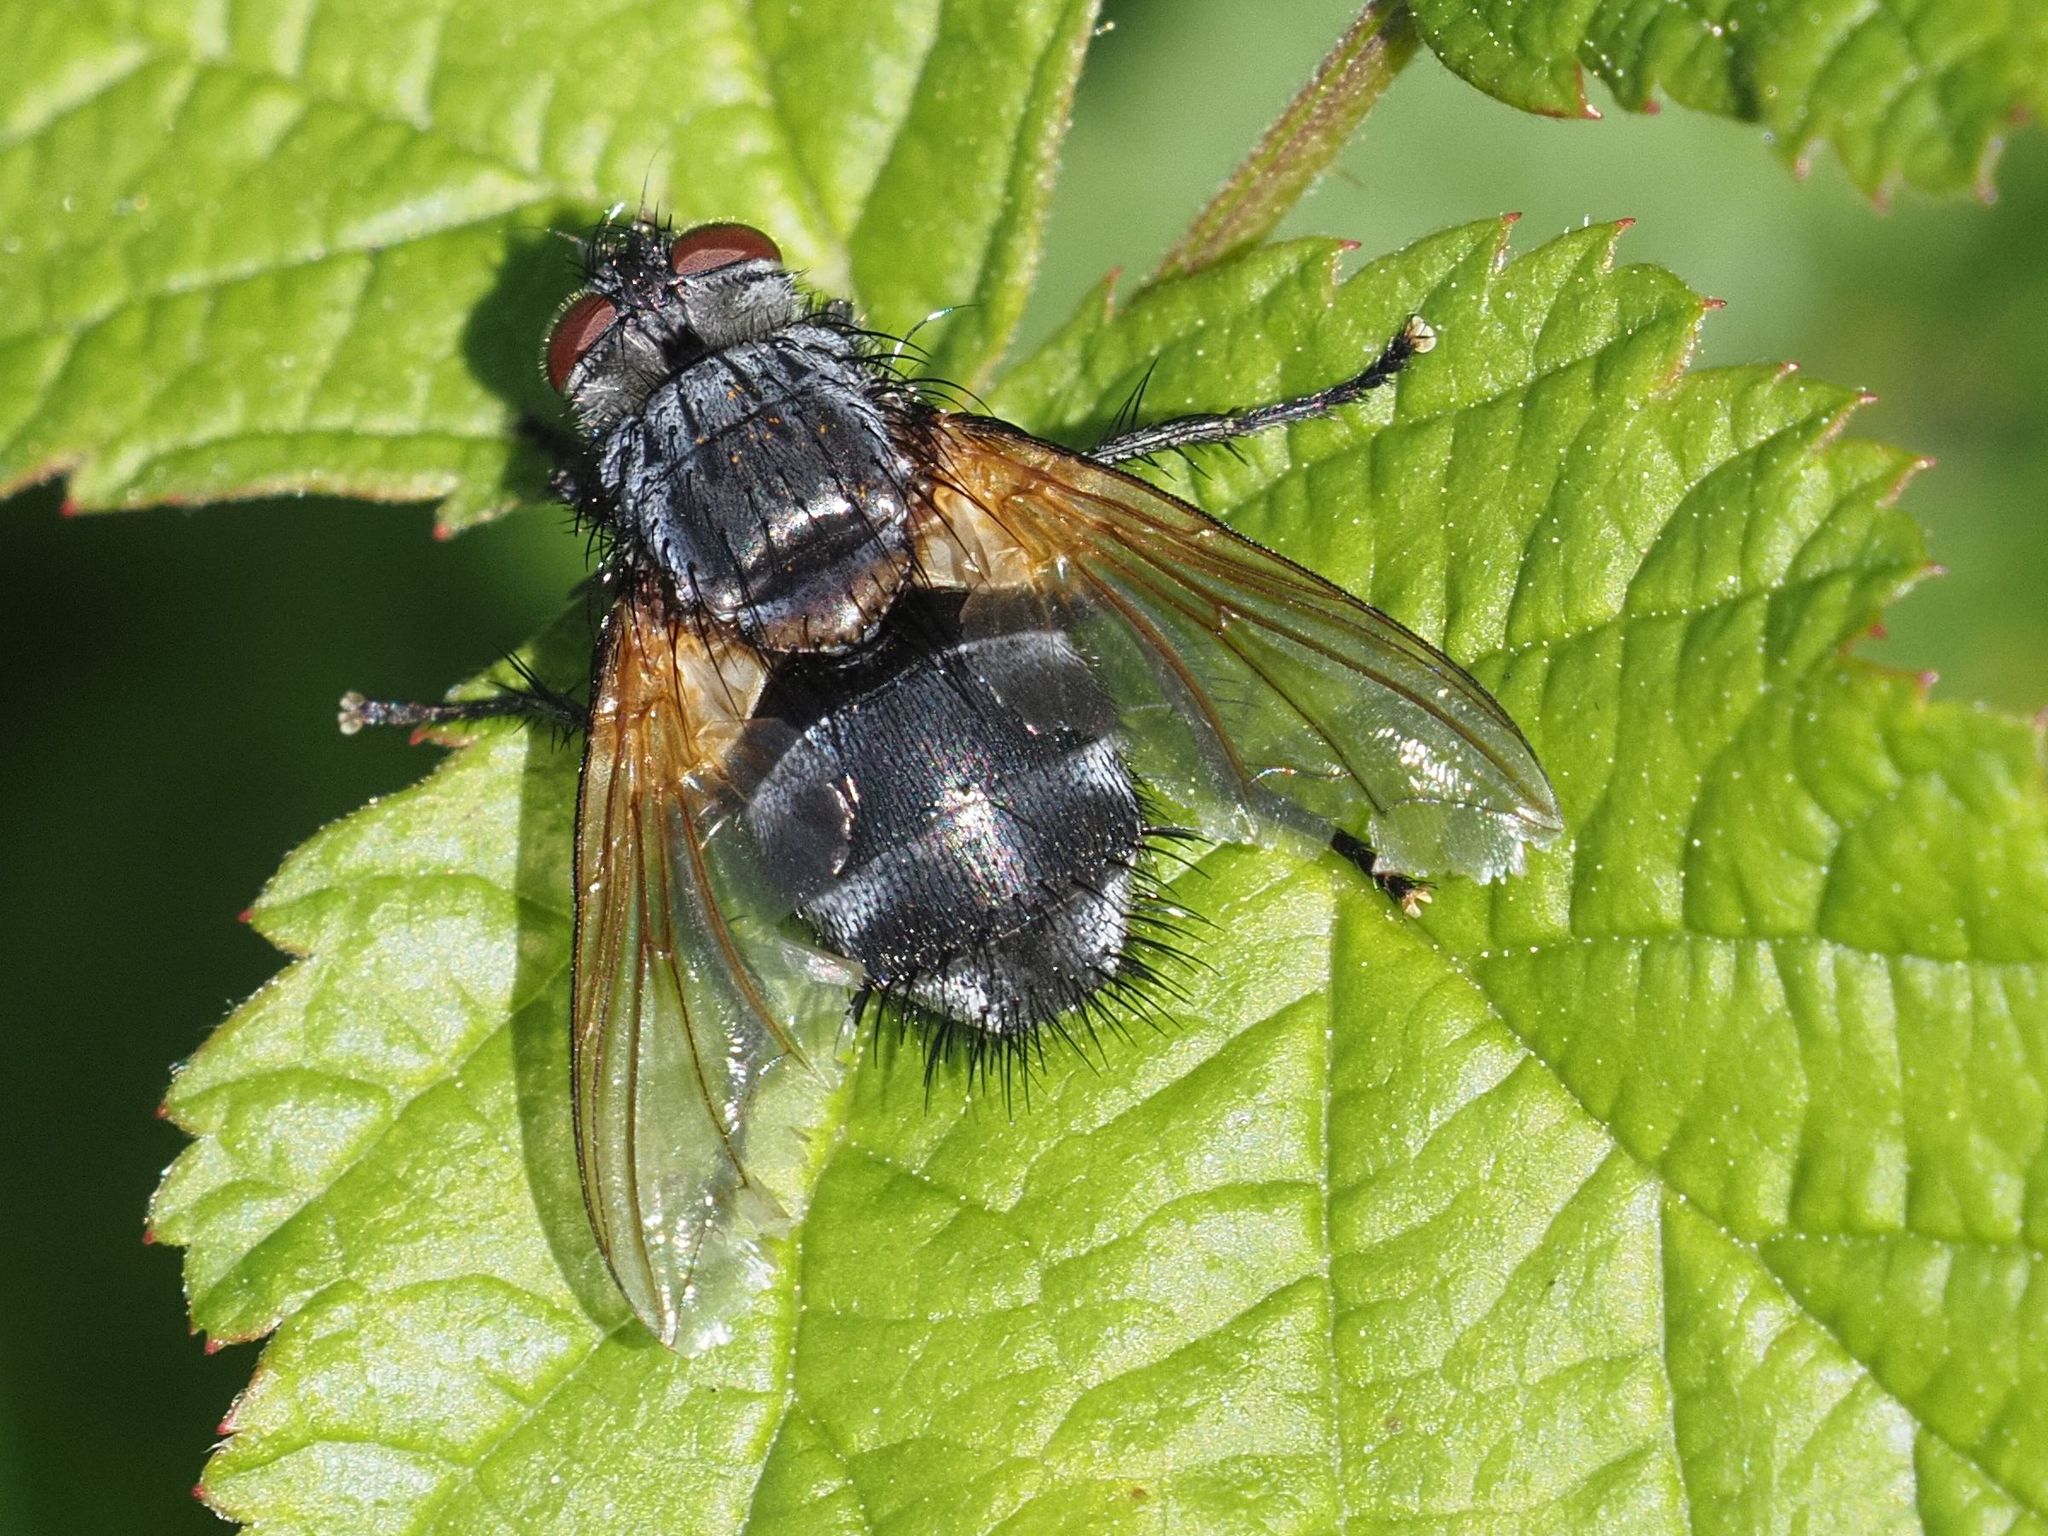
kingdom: Animalia
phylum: Arthropoda
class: Insecta
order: Diptera
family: Tachinidae
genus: Nemoraea
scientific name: Nemoraea pellucida
